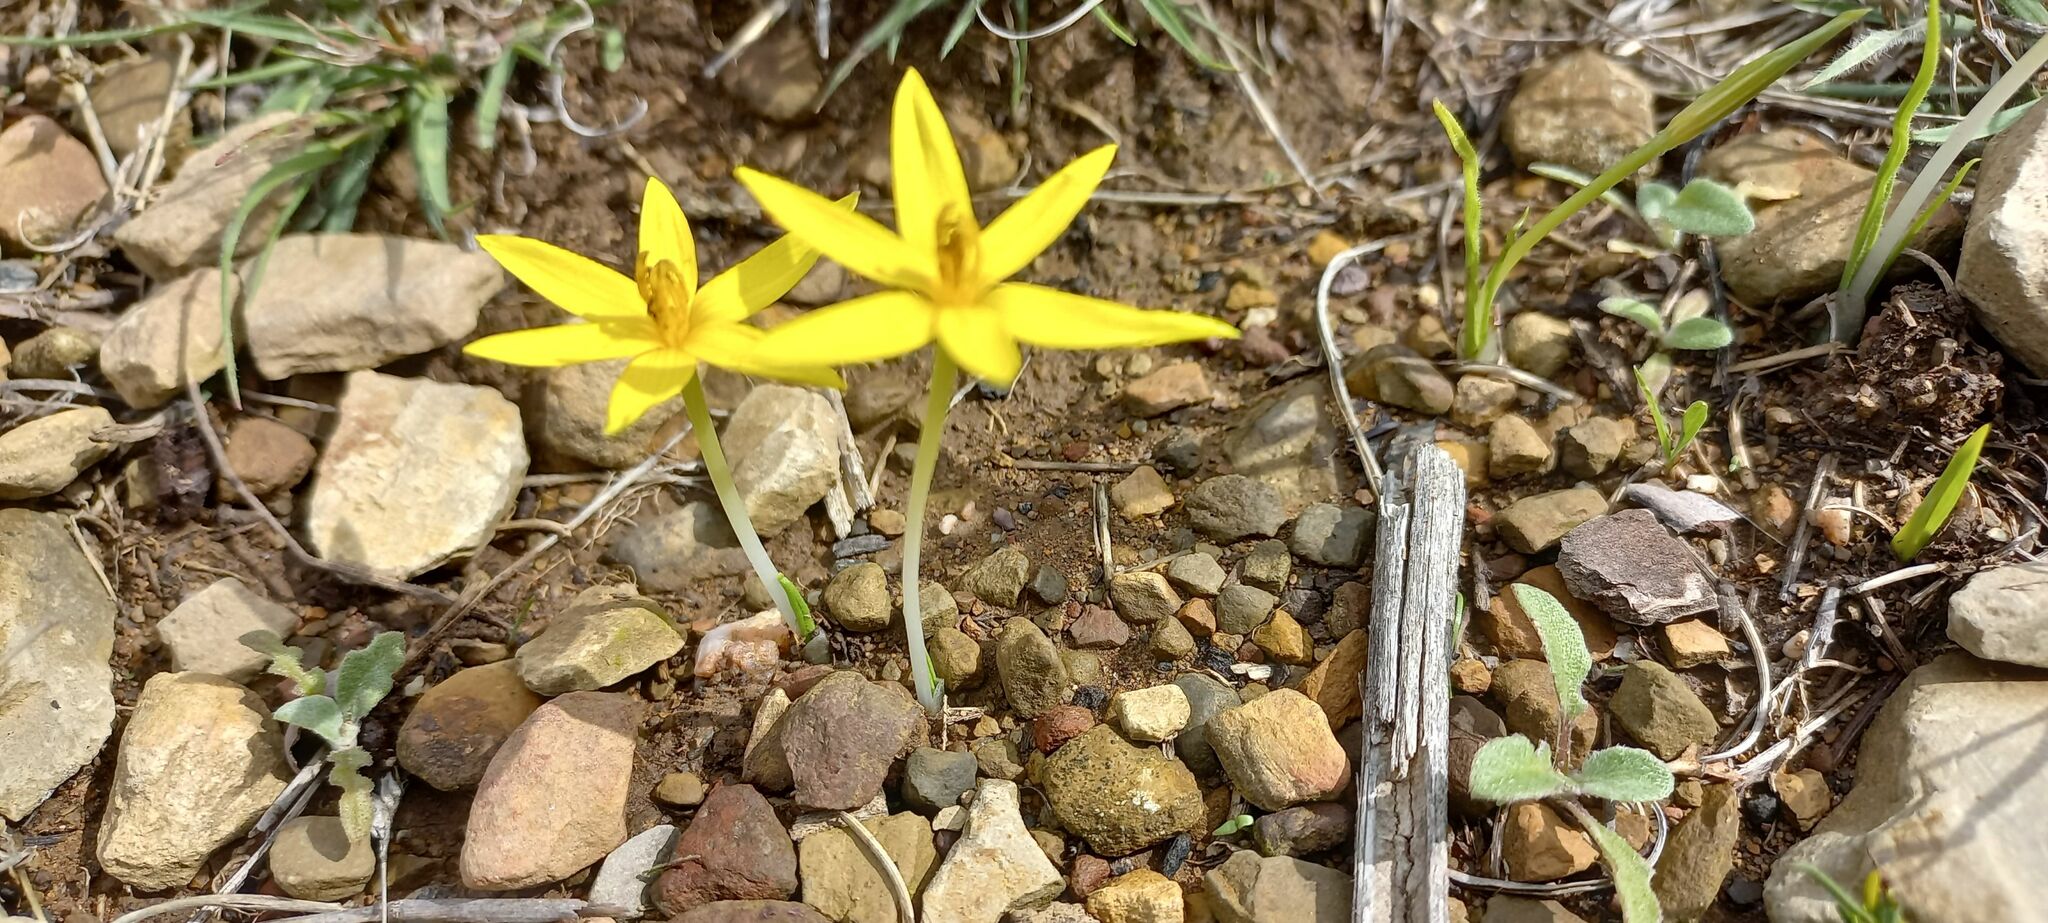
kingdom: Plantae
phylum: Tracheophyta
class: Liliopsida
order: Asparagales
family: Hypoxidaceae
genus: Empodium
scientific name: Empodium plicatum
